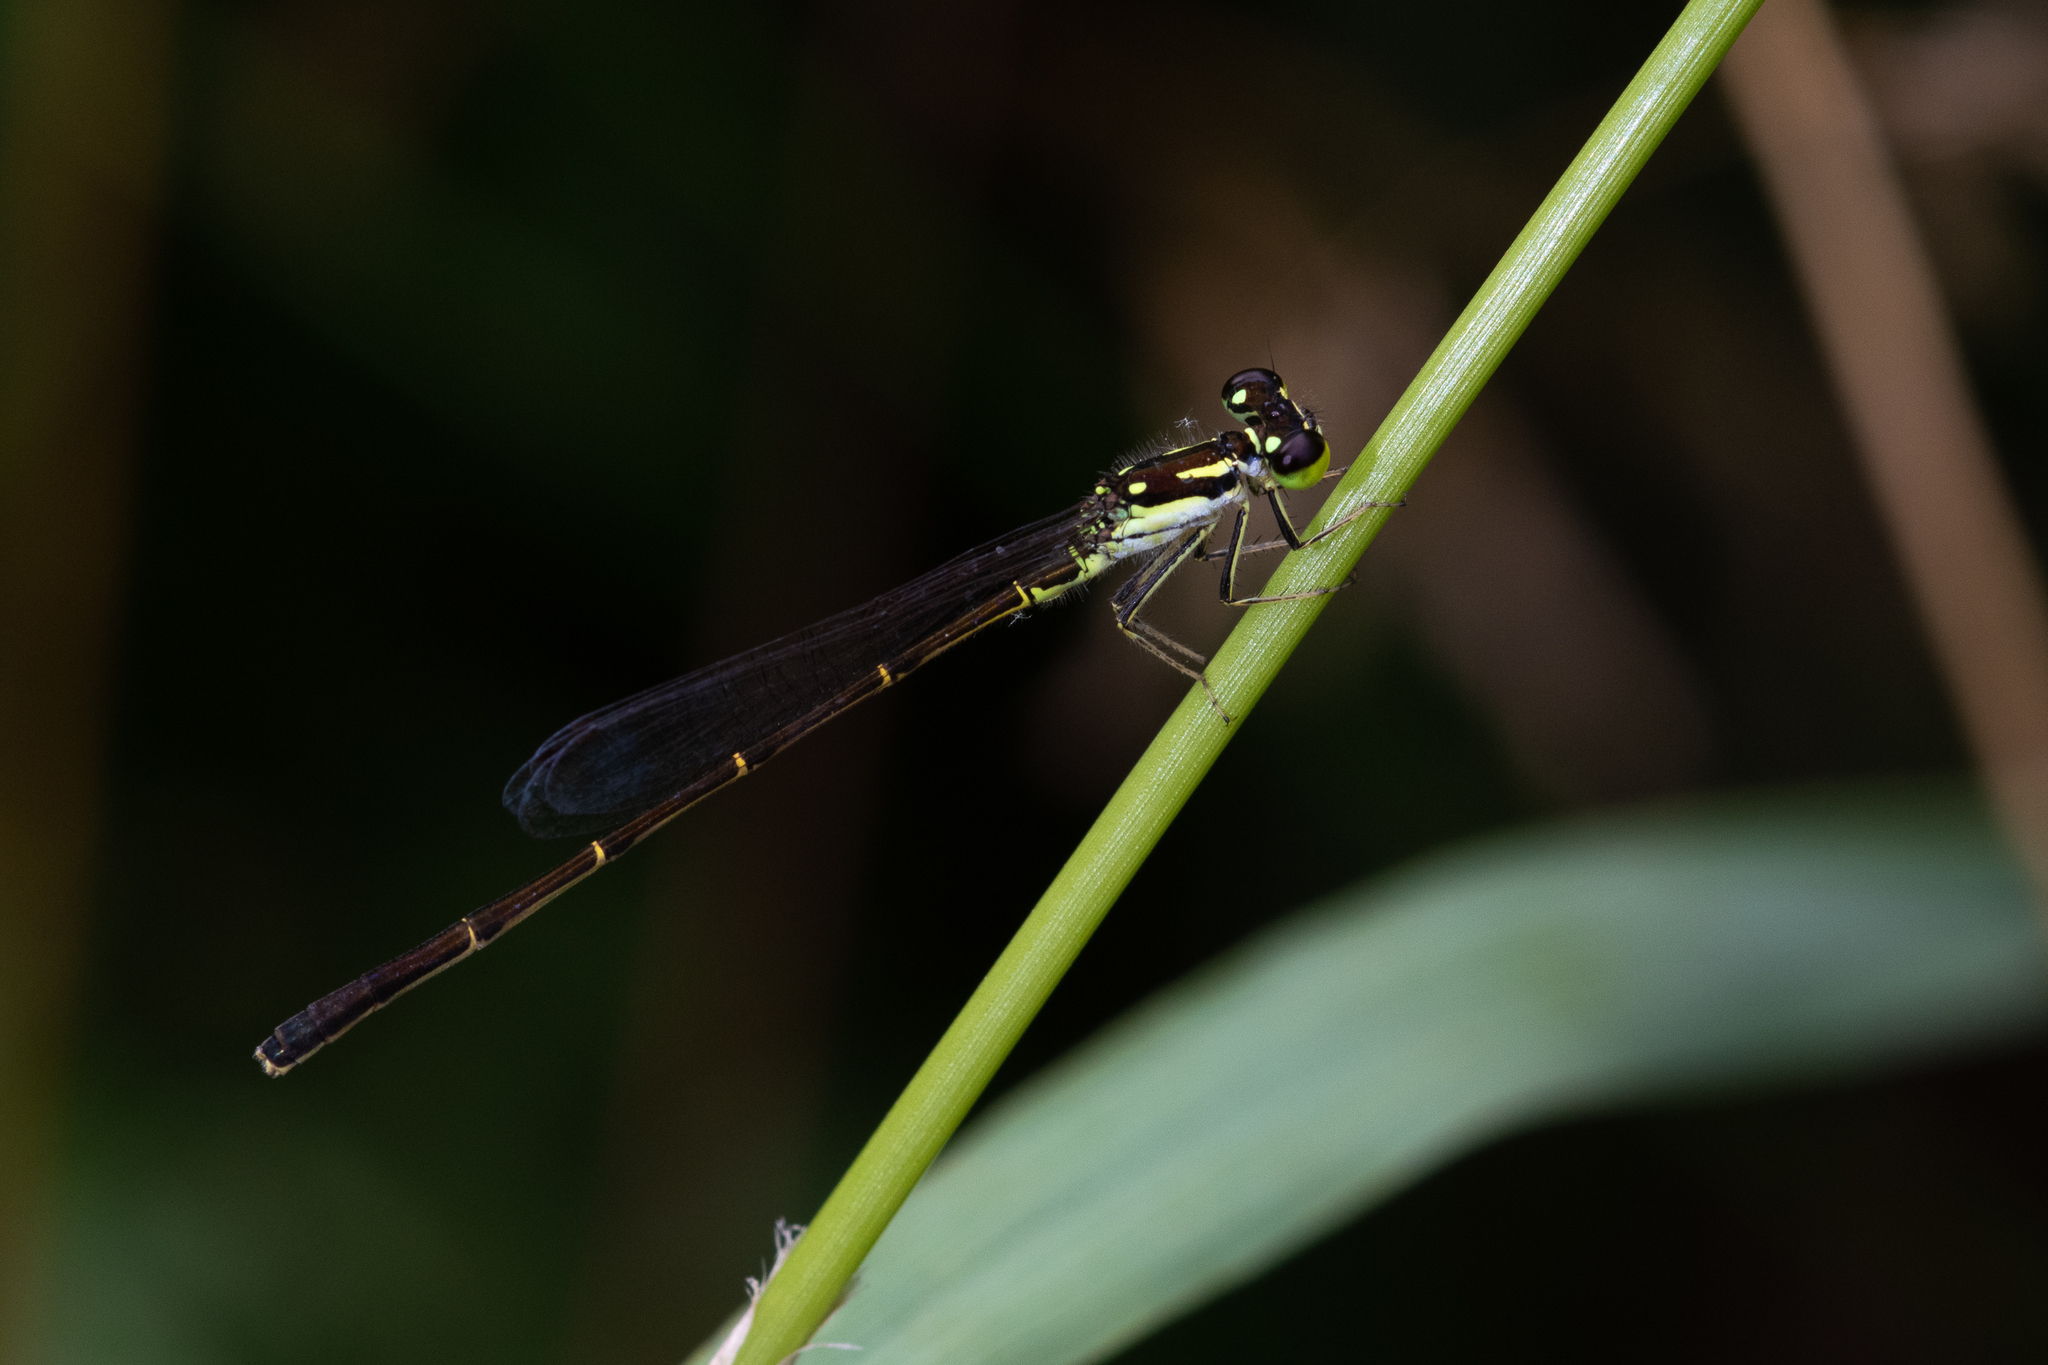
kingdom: Animalia
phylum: Arthropoda
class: Insecta
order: Odonata
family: Coenagrionidae
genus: Ischnura
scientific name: Ischnura posita
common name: Fragile forktail
